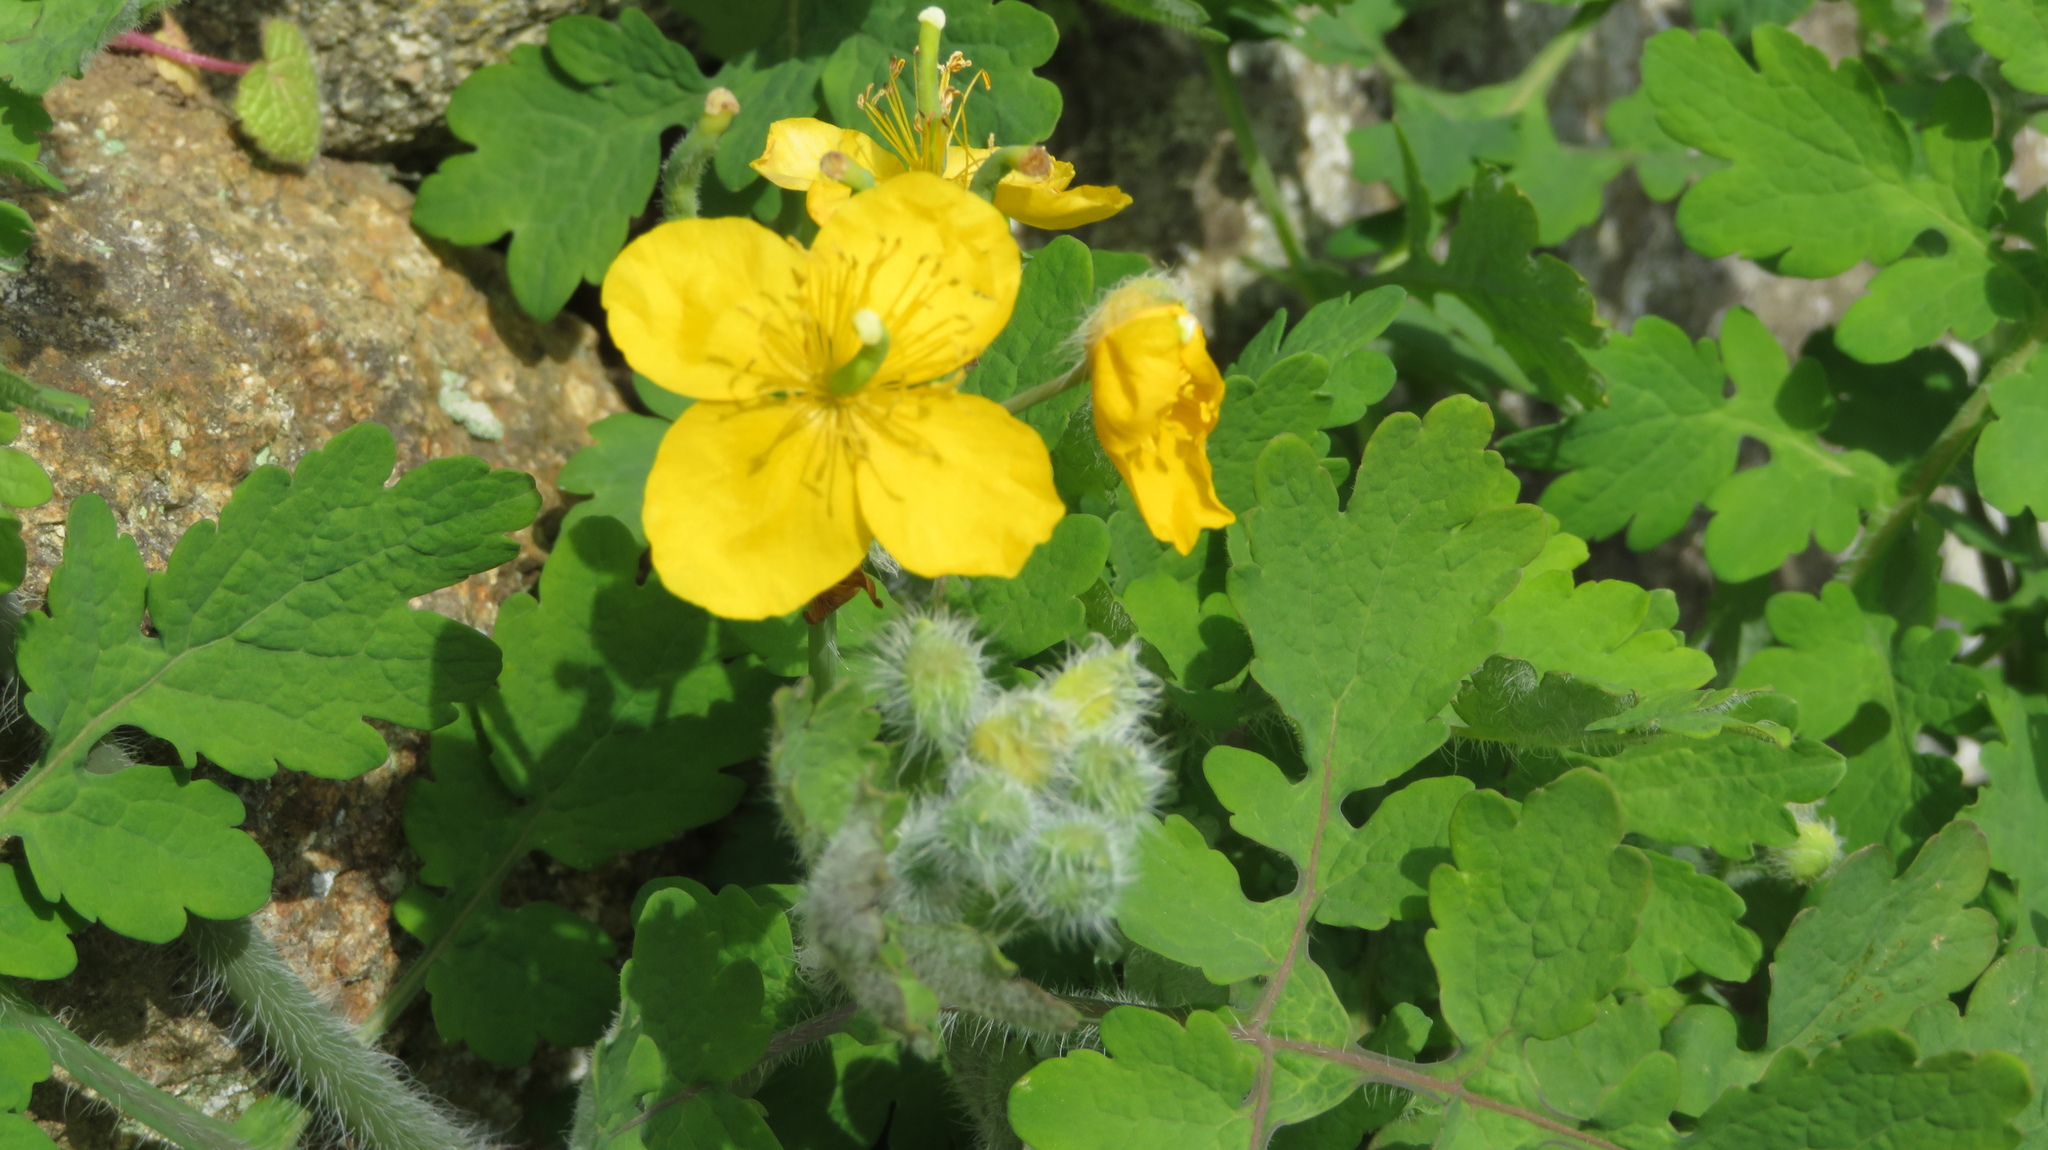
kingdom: Plantae
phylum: Tracheophyta
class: Magnoliopsida
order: Ranunculales
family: Papaveraceae
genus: Chelidonium
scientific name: Chelidonium majus
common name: Greater celandine
